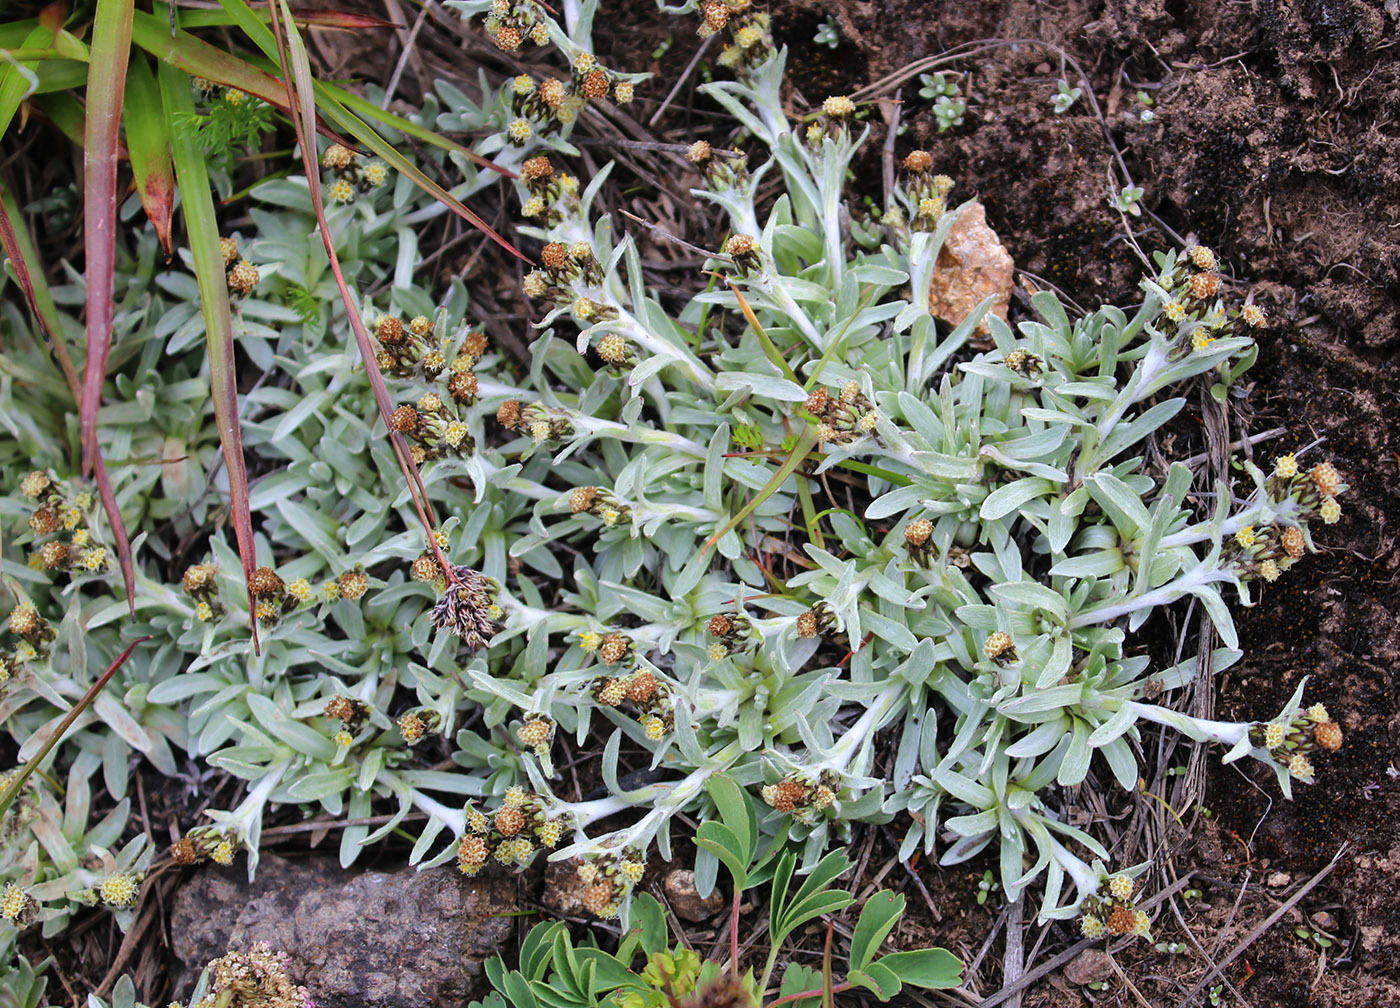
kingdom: Plantae
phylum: Tracheophyta
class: Magnoliopsida
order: Asterales
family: Asteraceae
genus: Omalotheca
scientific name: Omalotheca supina
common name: Alpine arctic-cudweed
